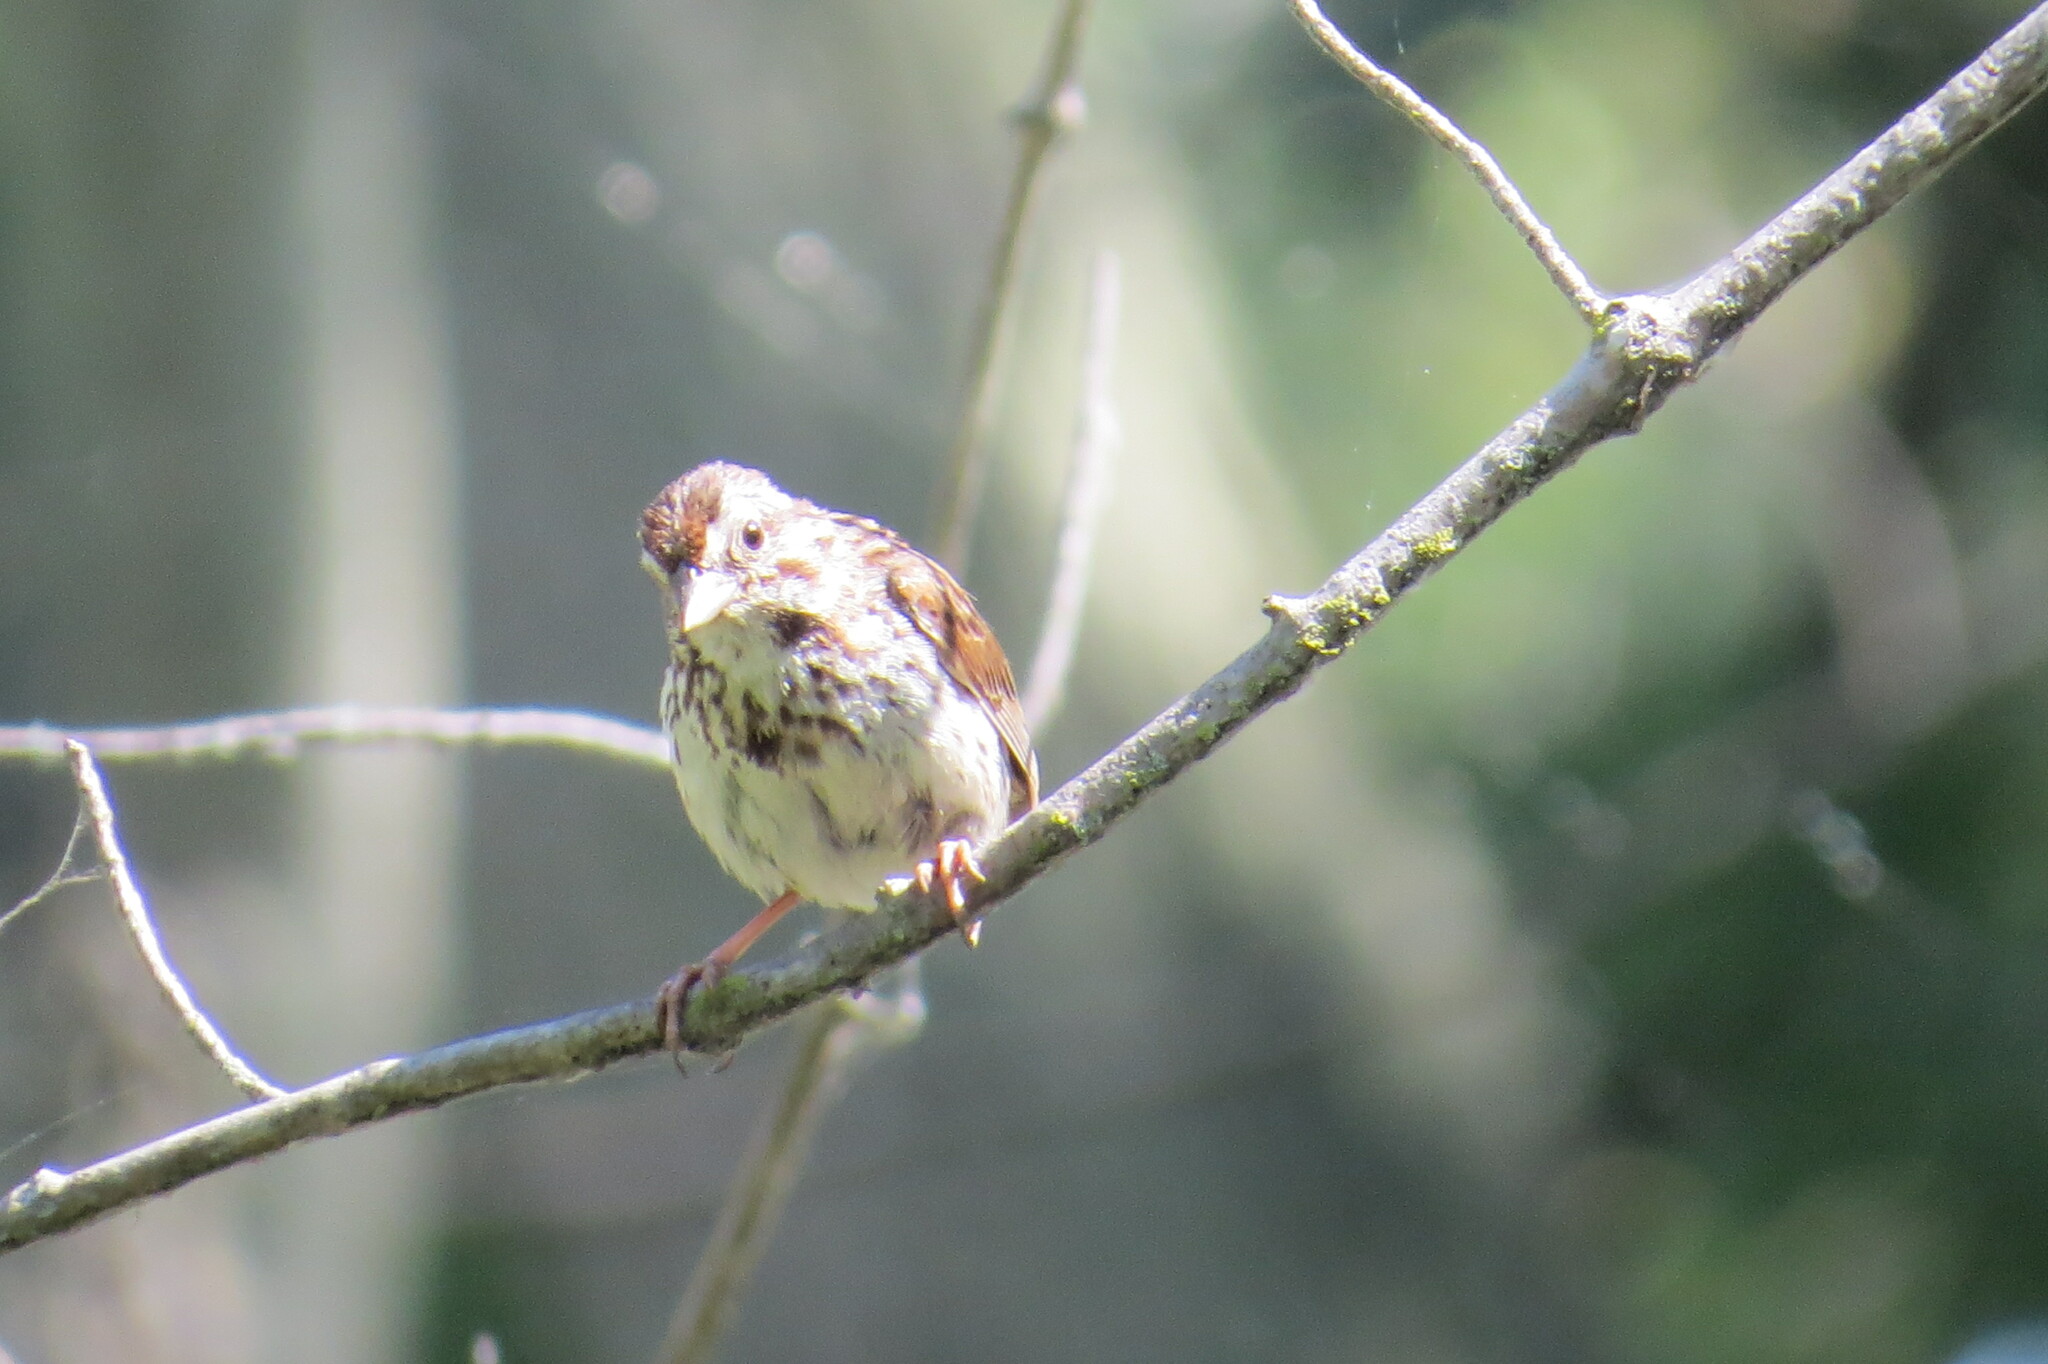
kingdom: Animalia
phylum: Chordata
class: Aves
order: Passeriformes
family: Passerellidae
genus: Melospiza
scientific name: Melospiza melodia
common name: Song sparrow
